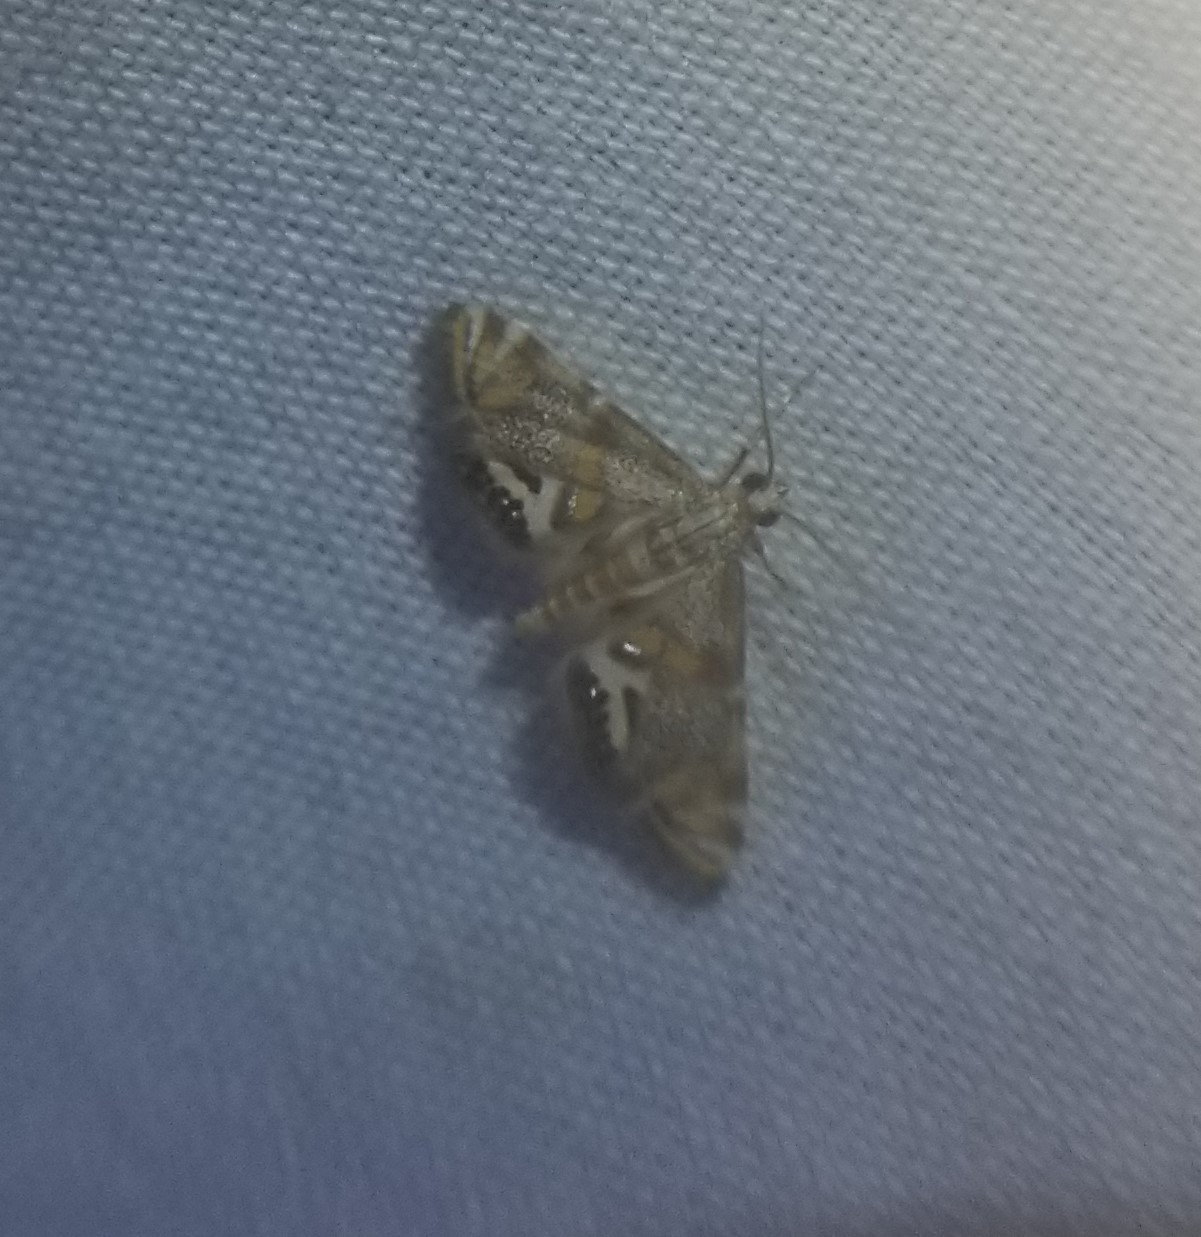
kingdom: Animalia
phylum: Arthropoda
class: Insecta
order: Lepidoptera
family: Crambidae
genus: Petrophila
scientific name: Petrophila bifascialis
